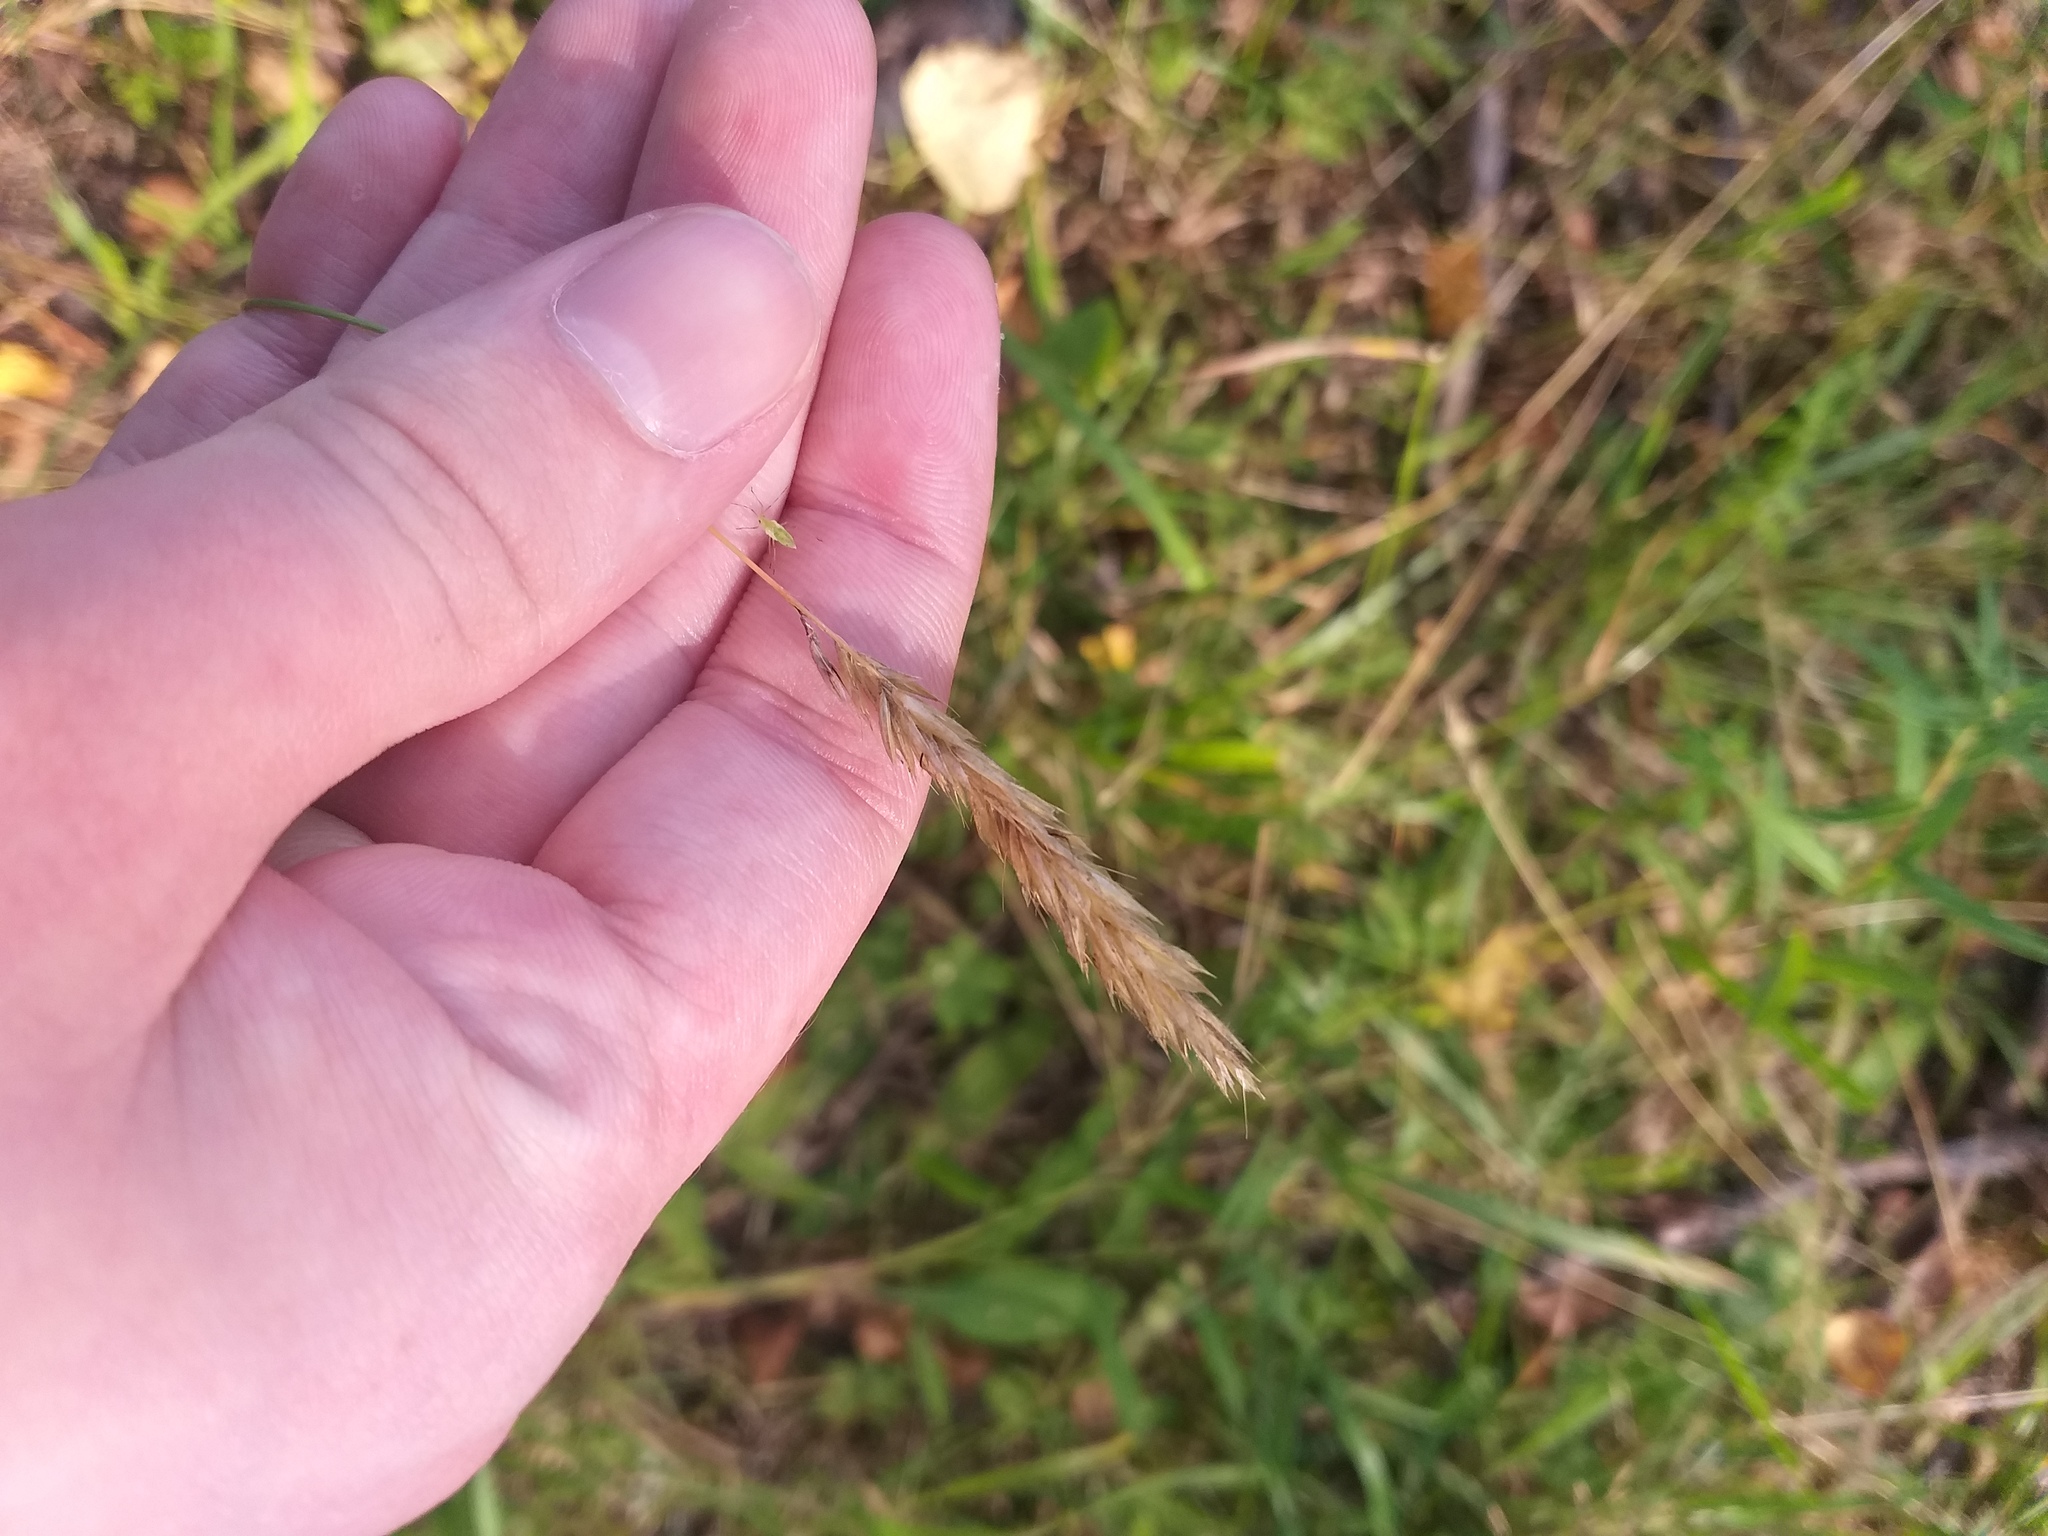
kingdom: Plantae
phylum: Tracheophyta
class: Liliopsida
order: Poales
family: Poaceae
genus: Anthoxanthum
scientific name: Anthoxanthum odoratum
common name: Sweet vernalgrass
